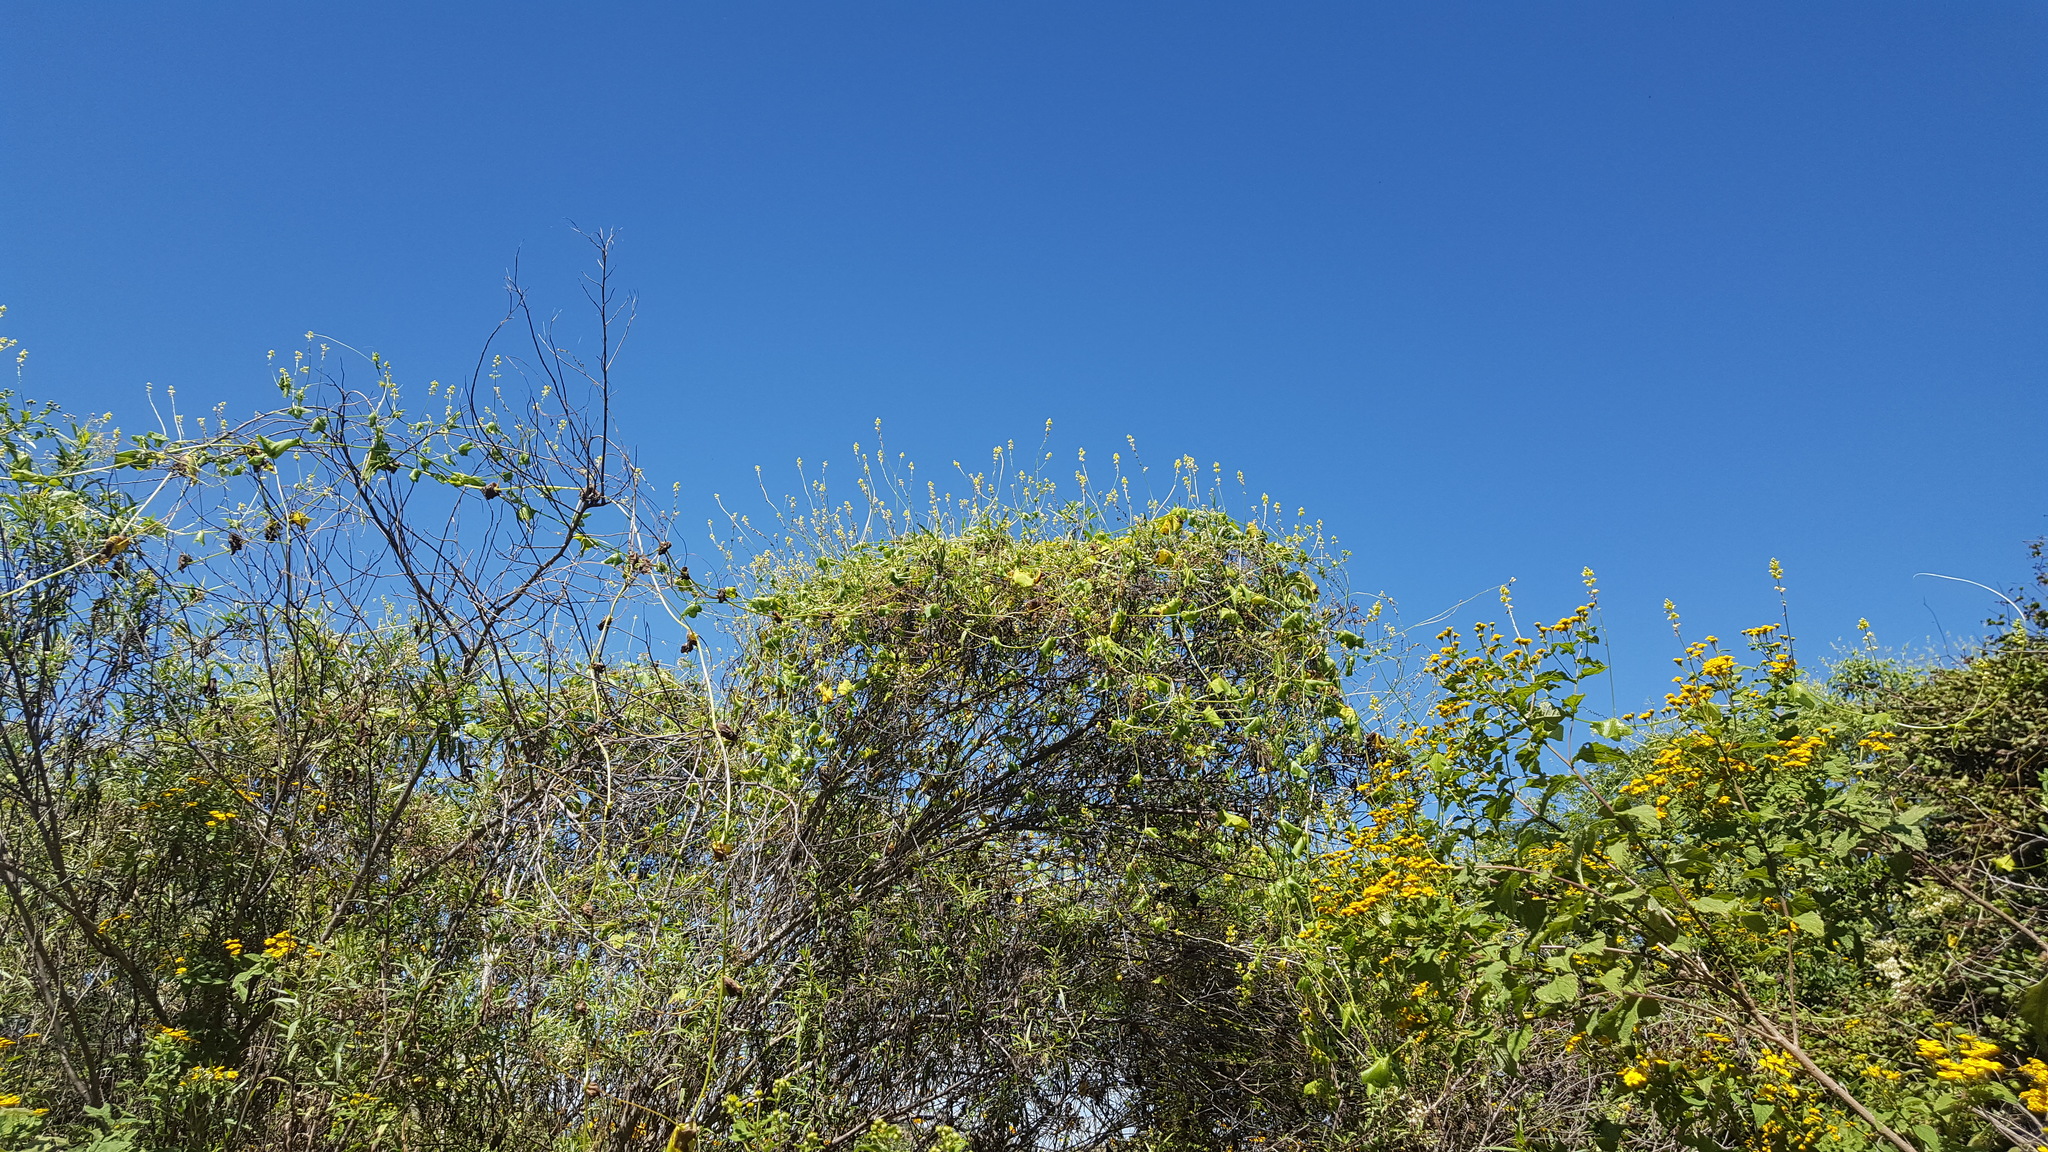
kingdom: Plantae
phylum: Tracheophyta
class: Magnoliopsida
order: Cucurbitales
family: Cucurbitaceae
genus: Sechiopsis
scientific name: Sechiopsis triquetra
